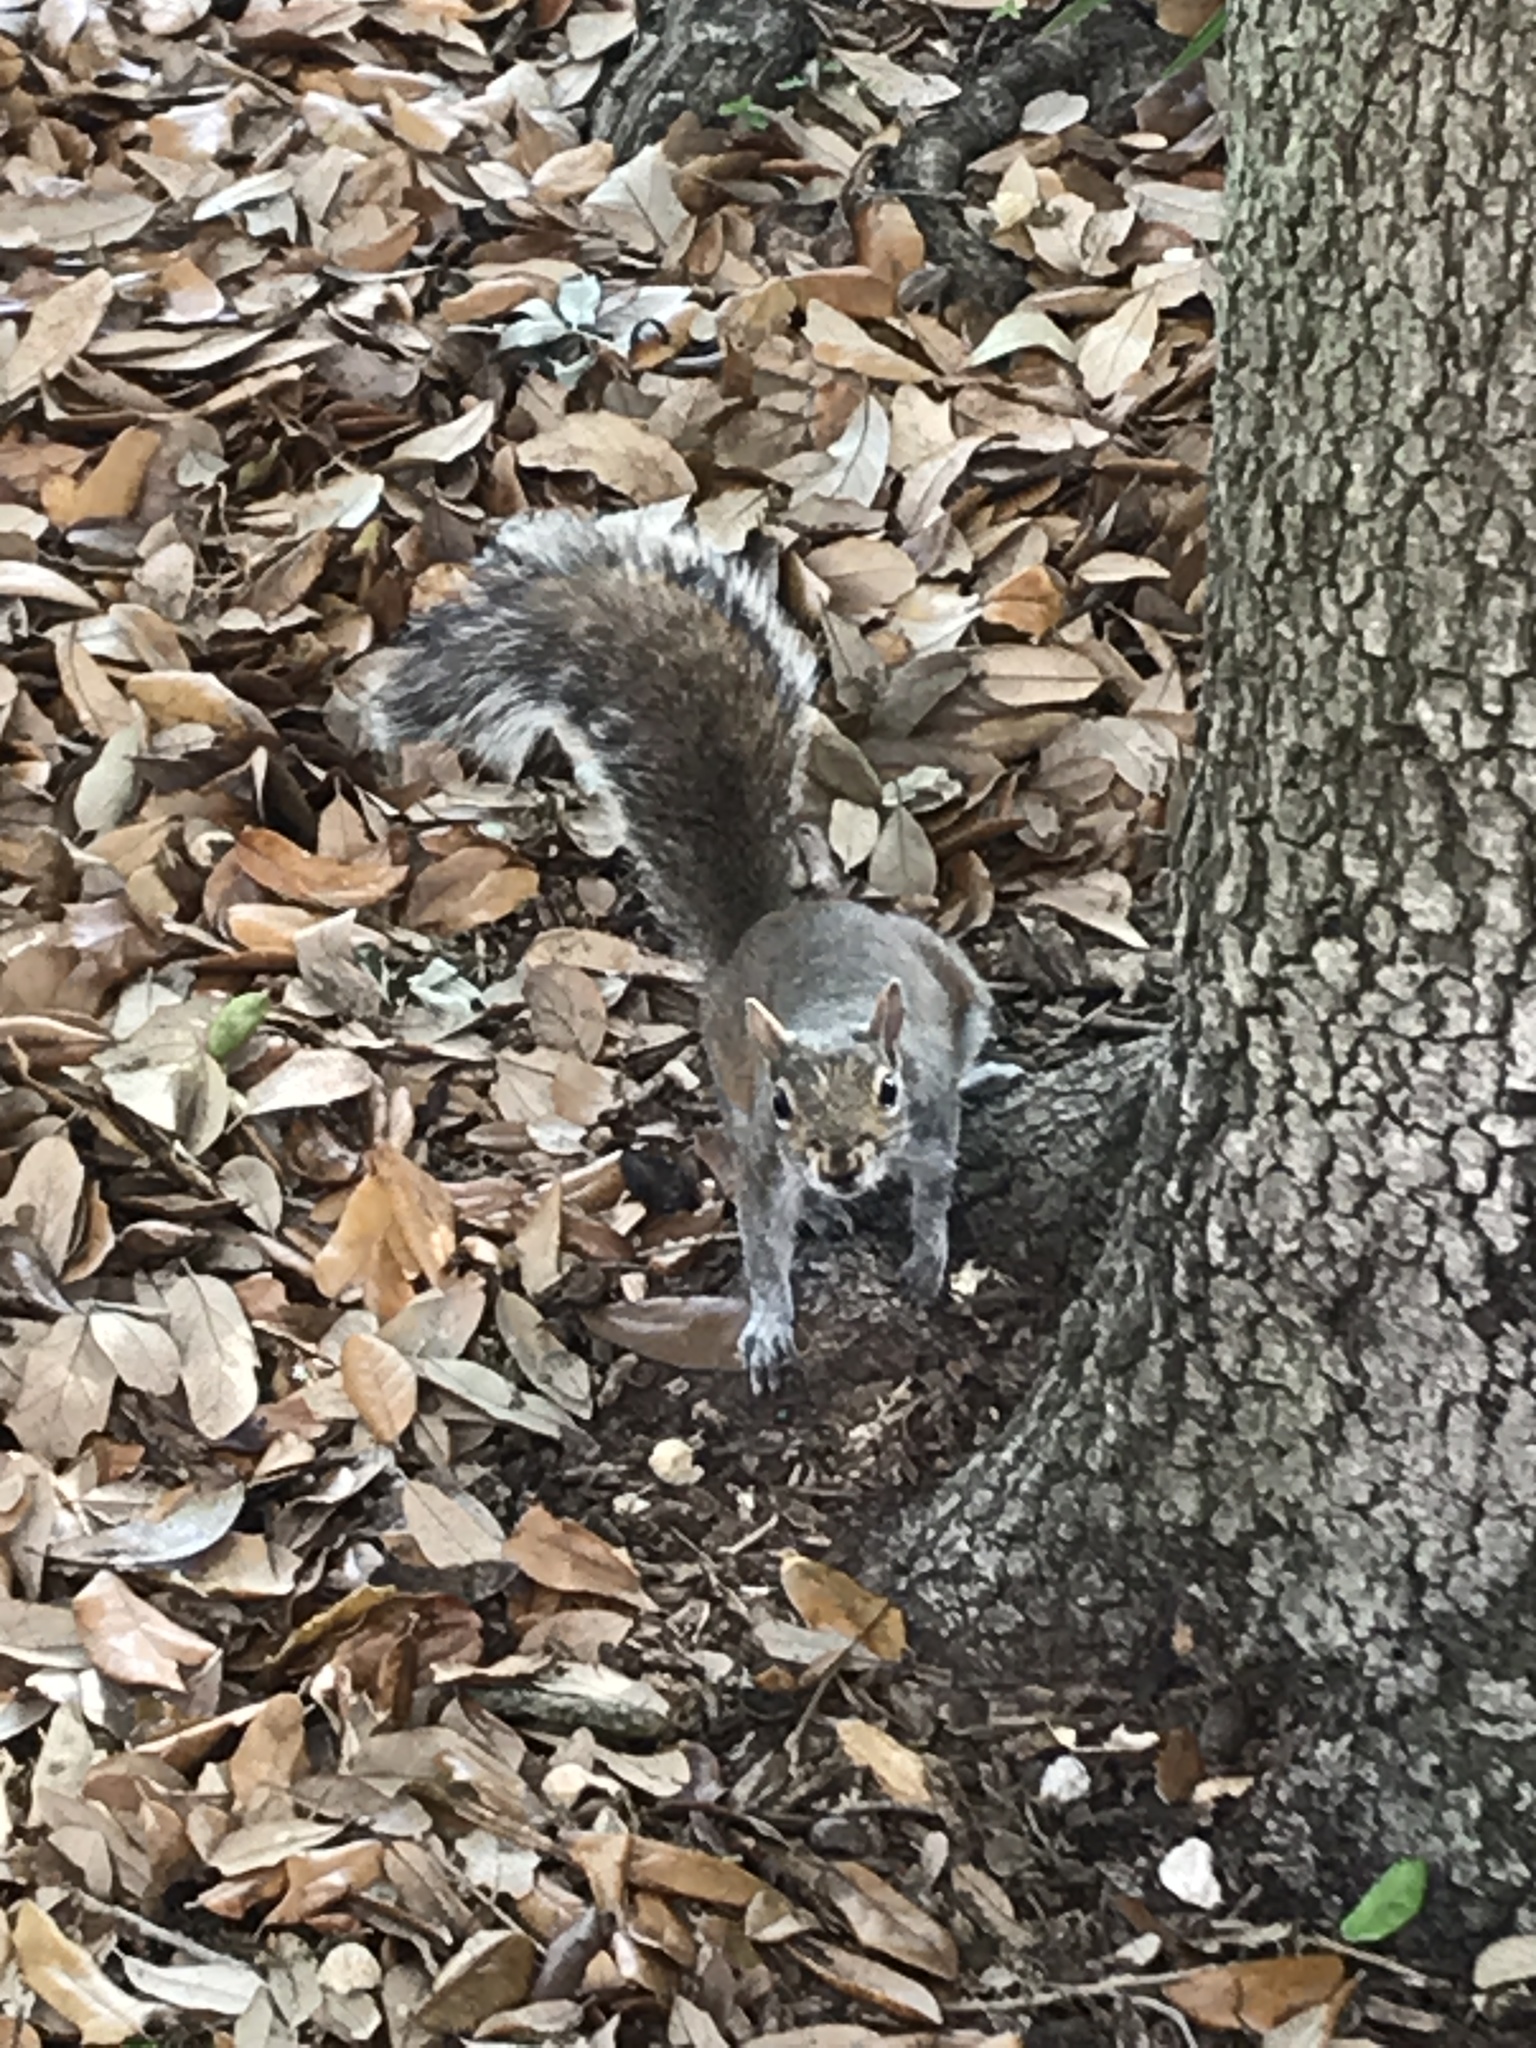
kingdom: Animalia
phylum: Chordata
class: Mammalia
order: Rodentia
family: Sciuridae
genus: Sciurus
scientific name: Sciurus carolinensis
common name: Eastern gray squirrel
